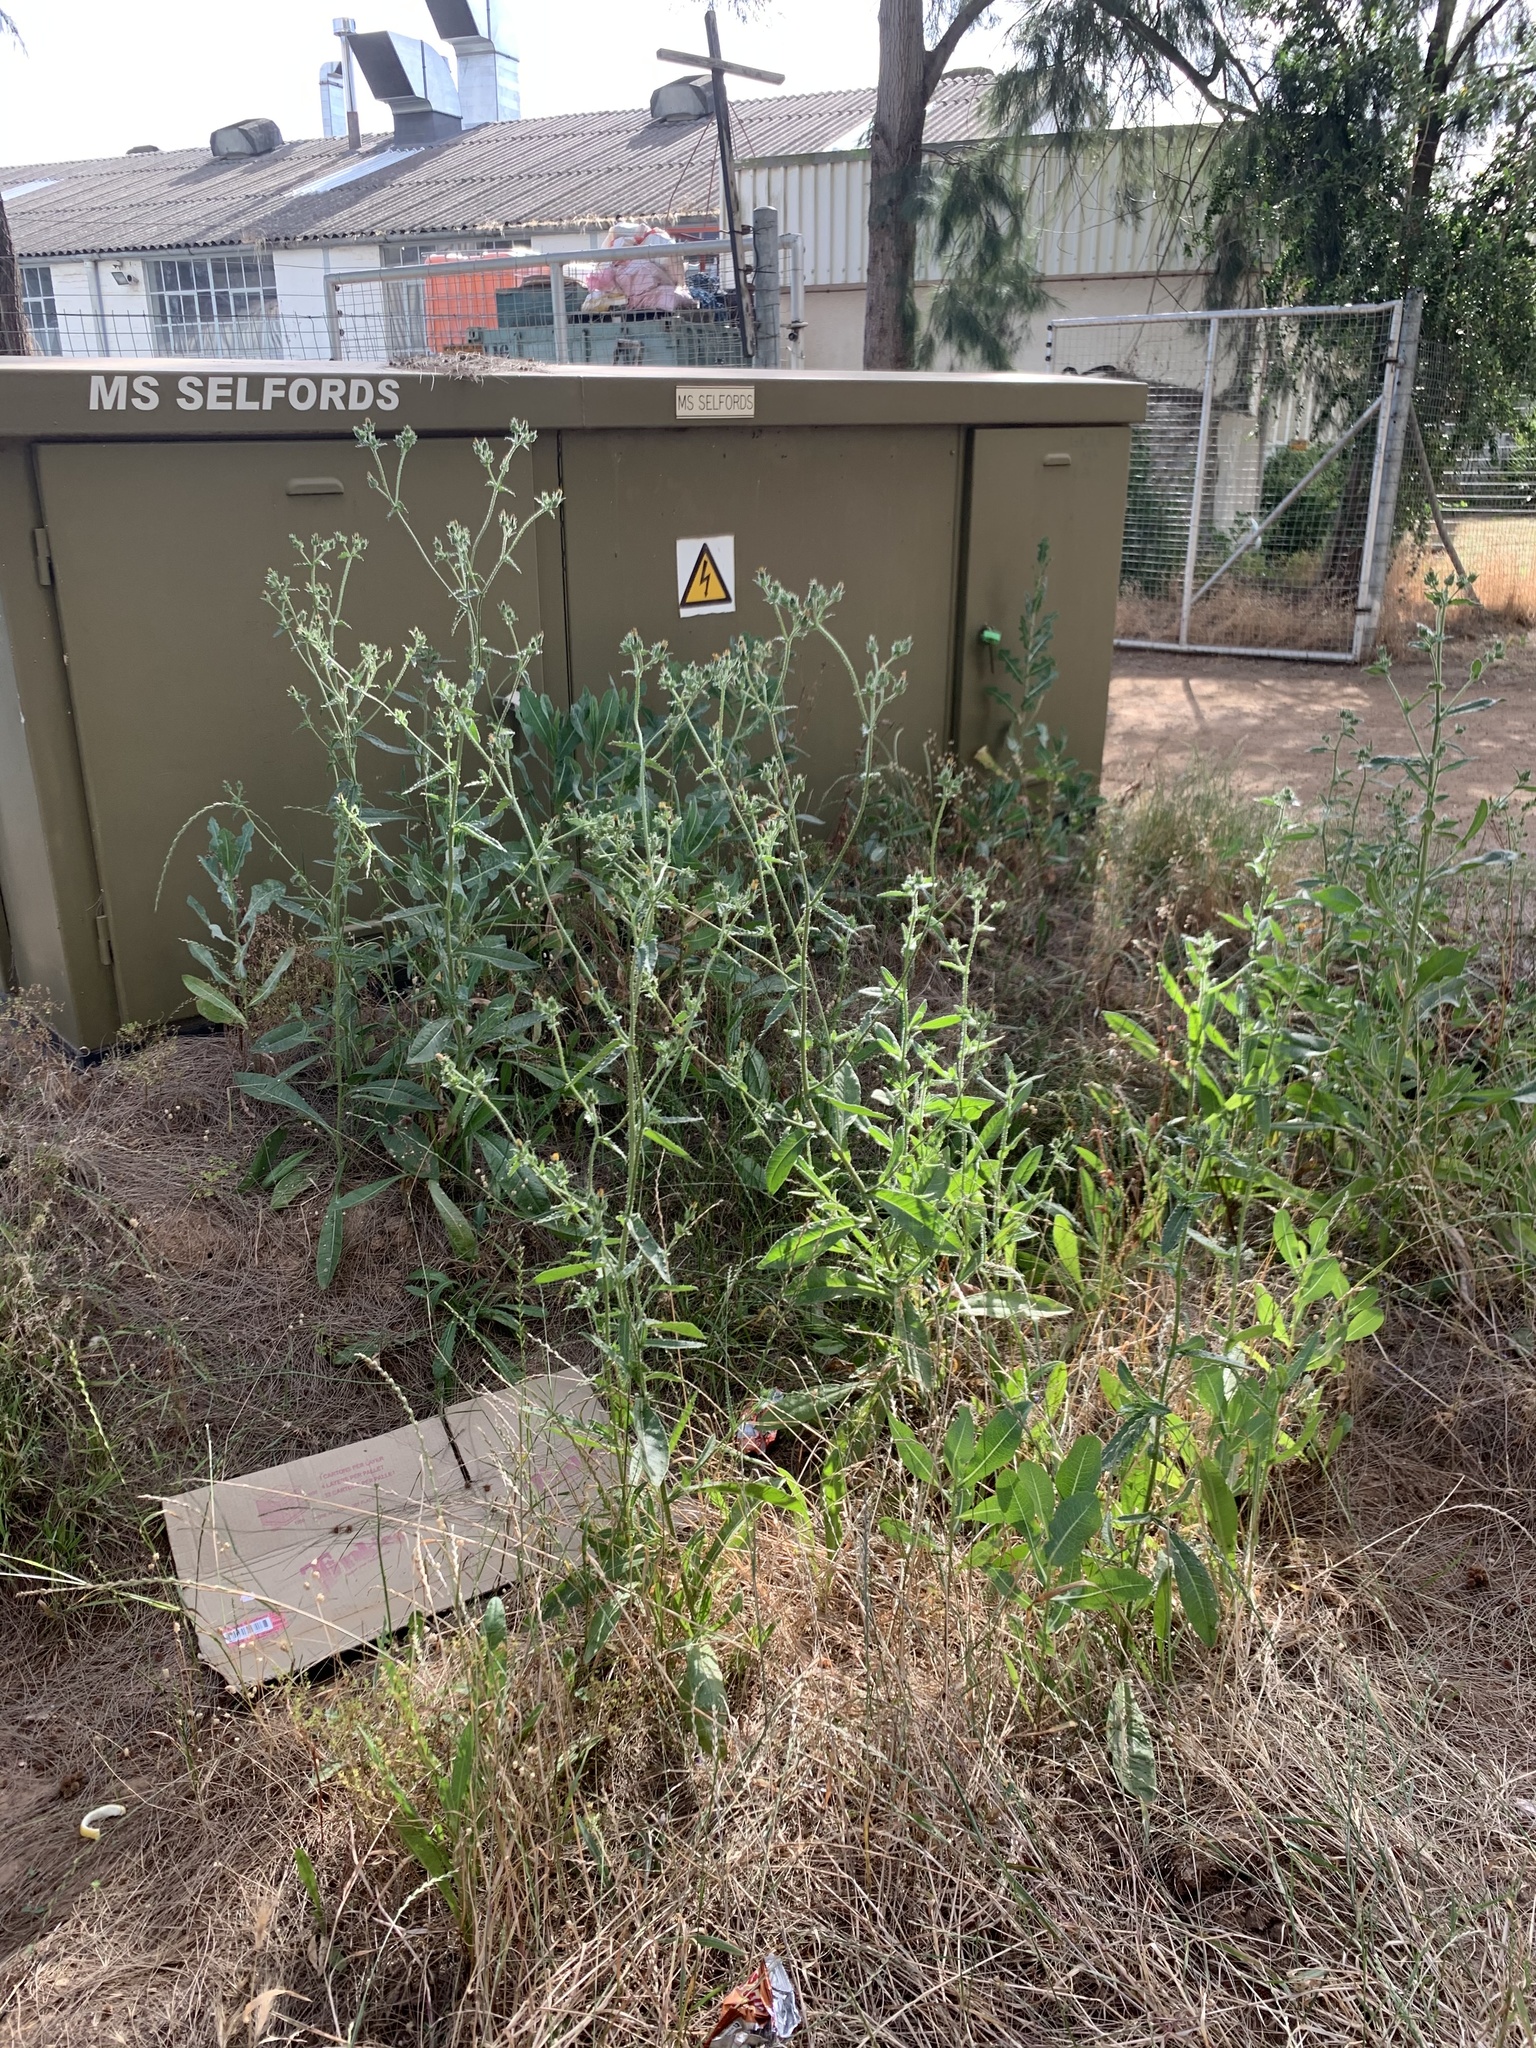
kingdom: Plantae
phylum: Tracheophyta
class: Magnoliopsida
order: Asterales
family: Asteraceae
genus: Helminthotheca
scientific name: Helminthotheca echioides
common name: Ox-tongue
